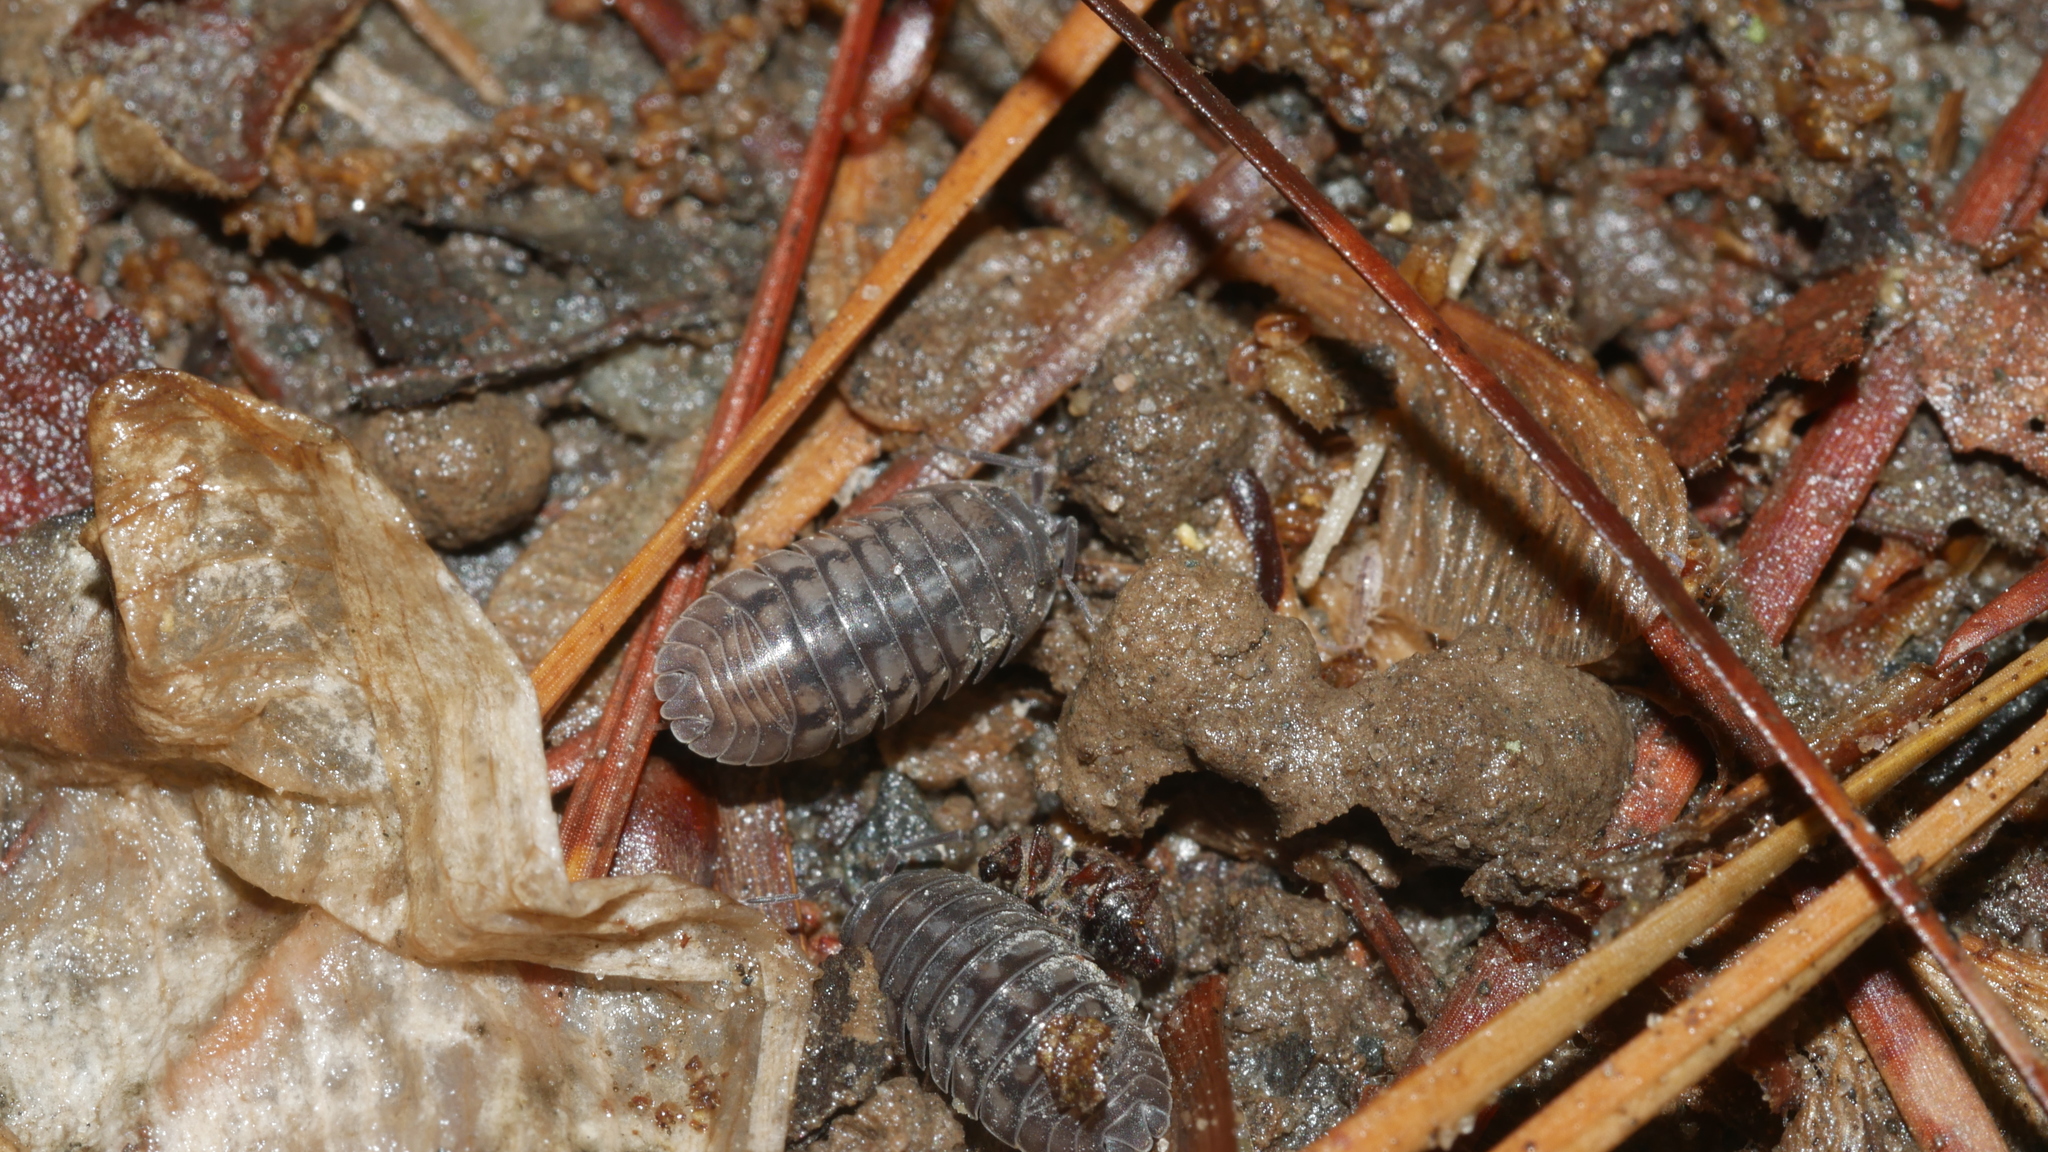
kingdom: Animalia
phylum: Arthropoda
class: Malacostraca
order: Isopoda
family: Armadillidiidae
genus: Armadillidium
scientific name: Armadillidium nasatum
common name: Isopod
